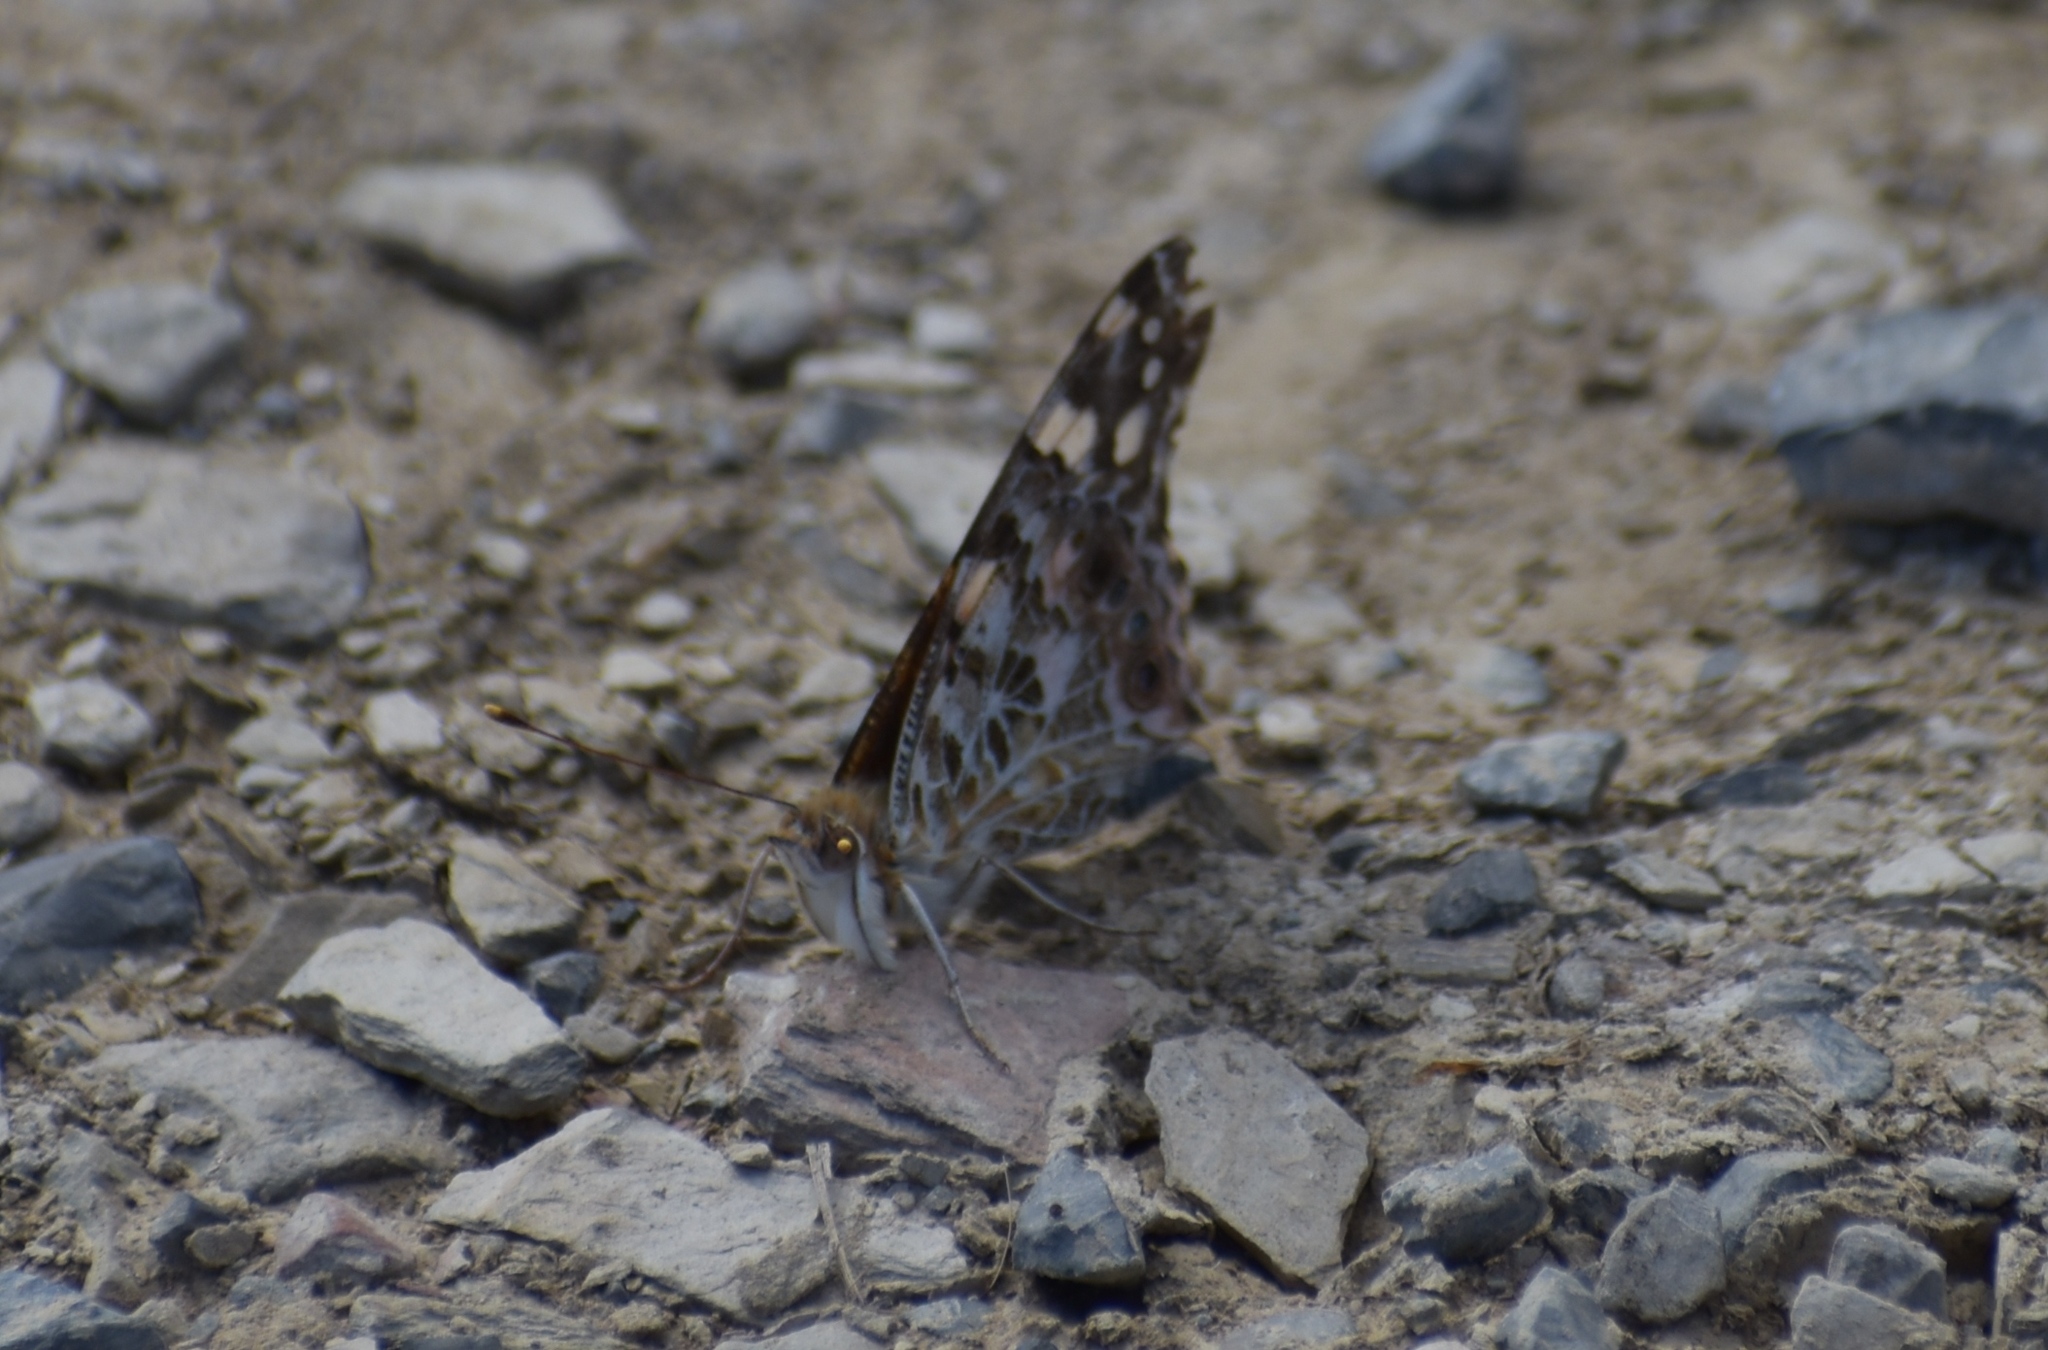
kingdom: Animalia
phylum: Arthropoda
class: Insecta
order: Lepidoptera
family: Nymphalidae
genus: Vanessa
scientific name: Vanessa cardui
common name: Painted lady
